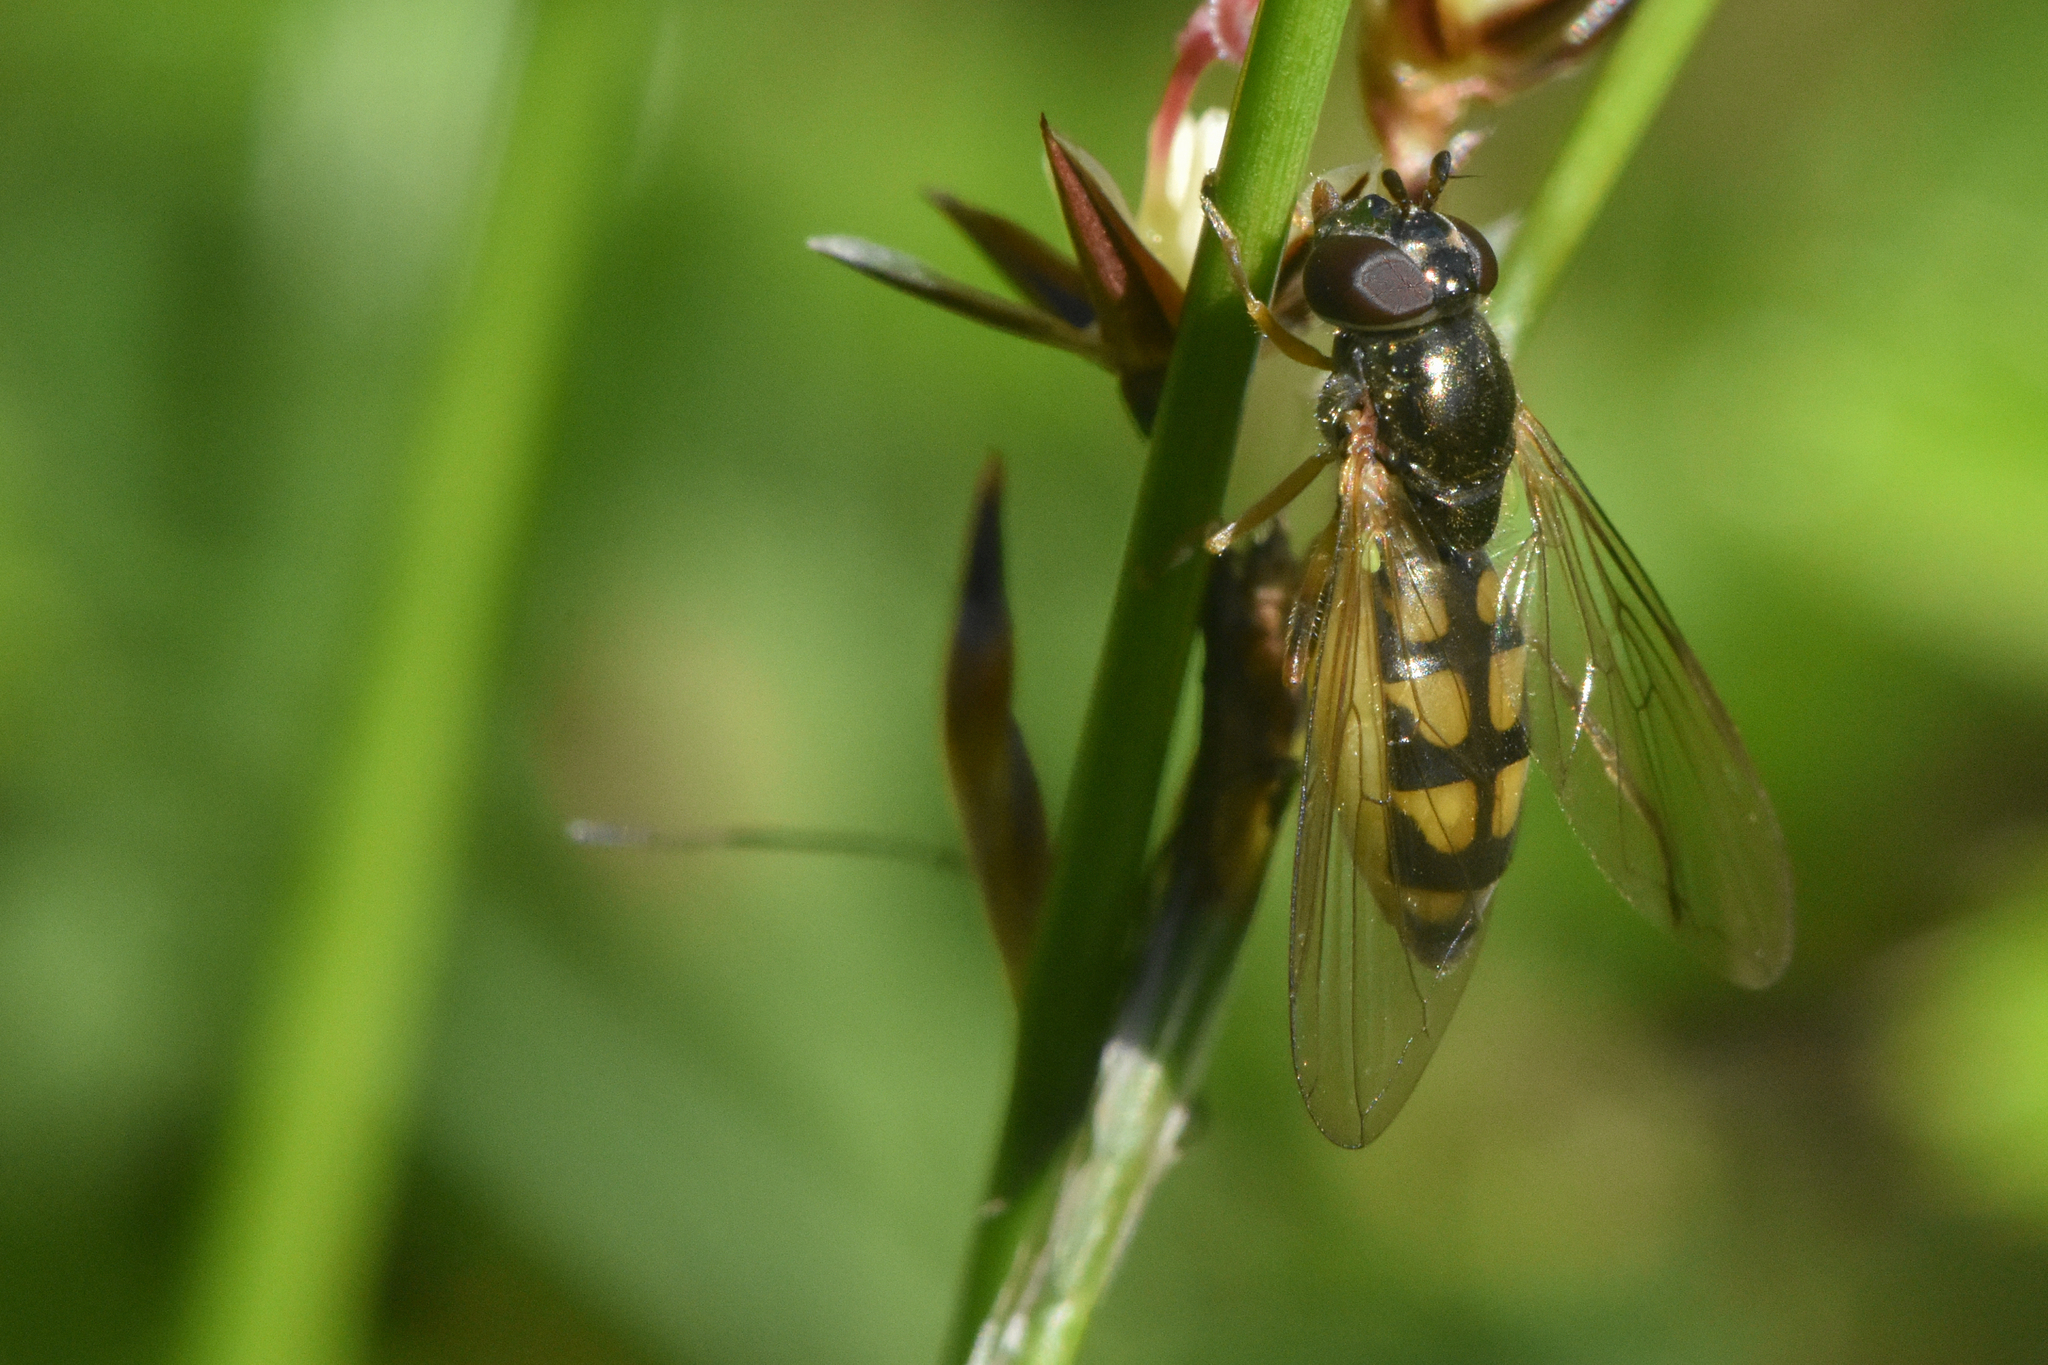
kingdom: Animalia
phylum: Arthropoda
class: Insecta
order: Diptera
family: Syrphidae
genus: Melanostoma
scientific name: Melanostoma mellina
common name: Hover fly
